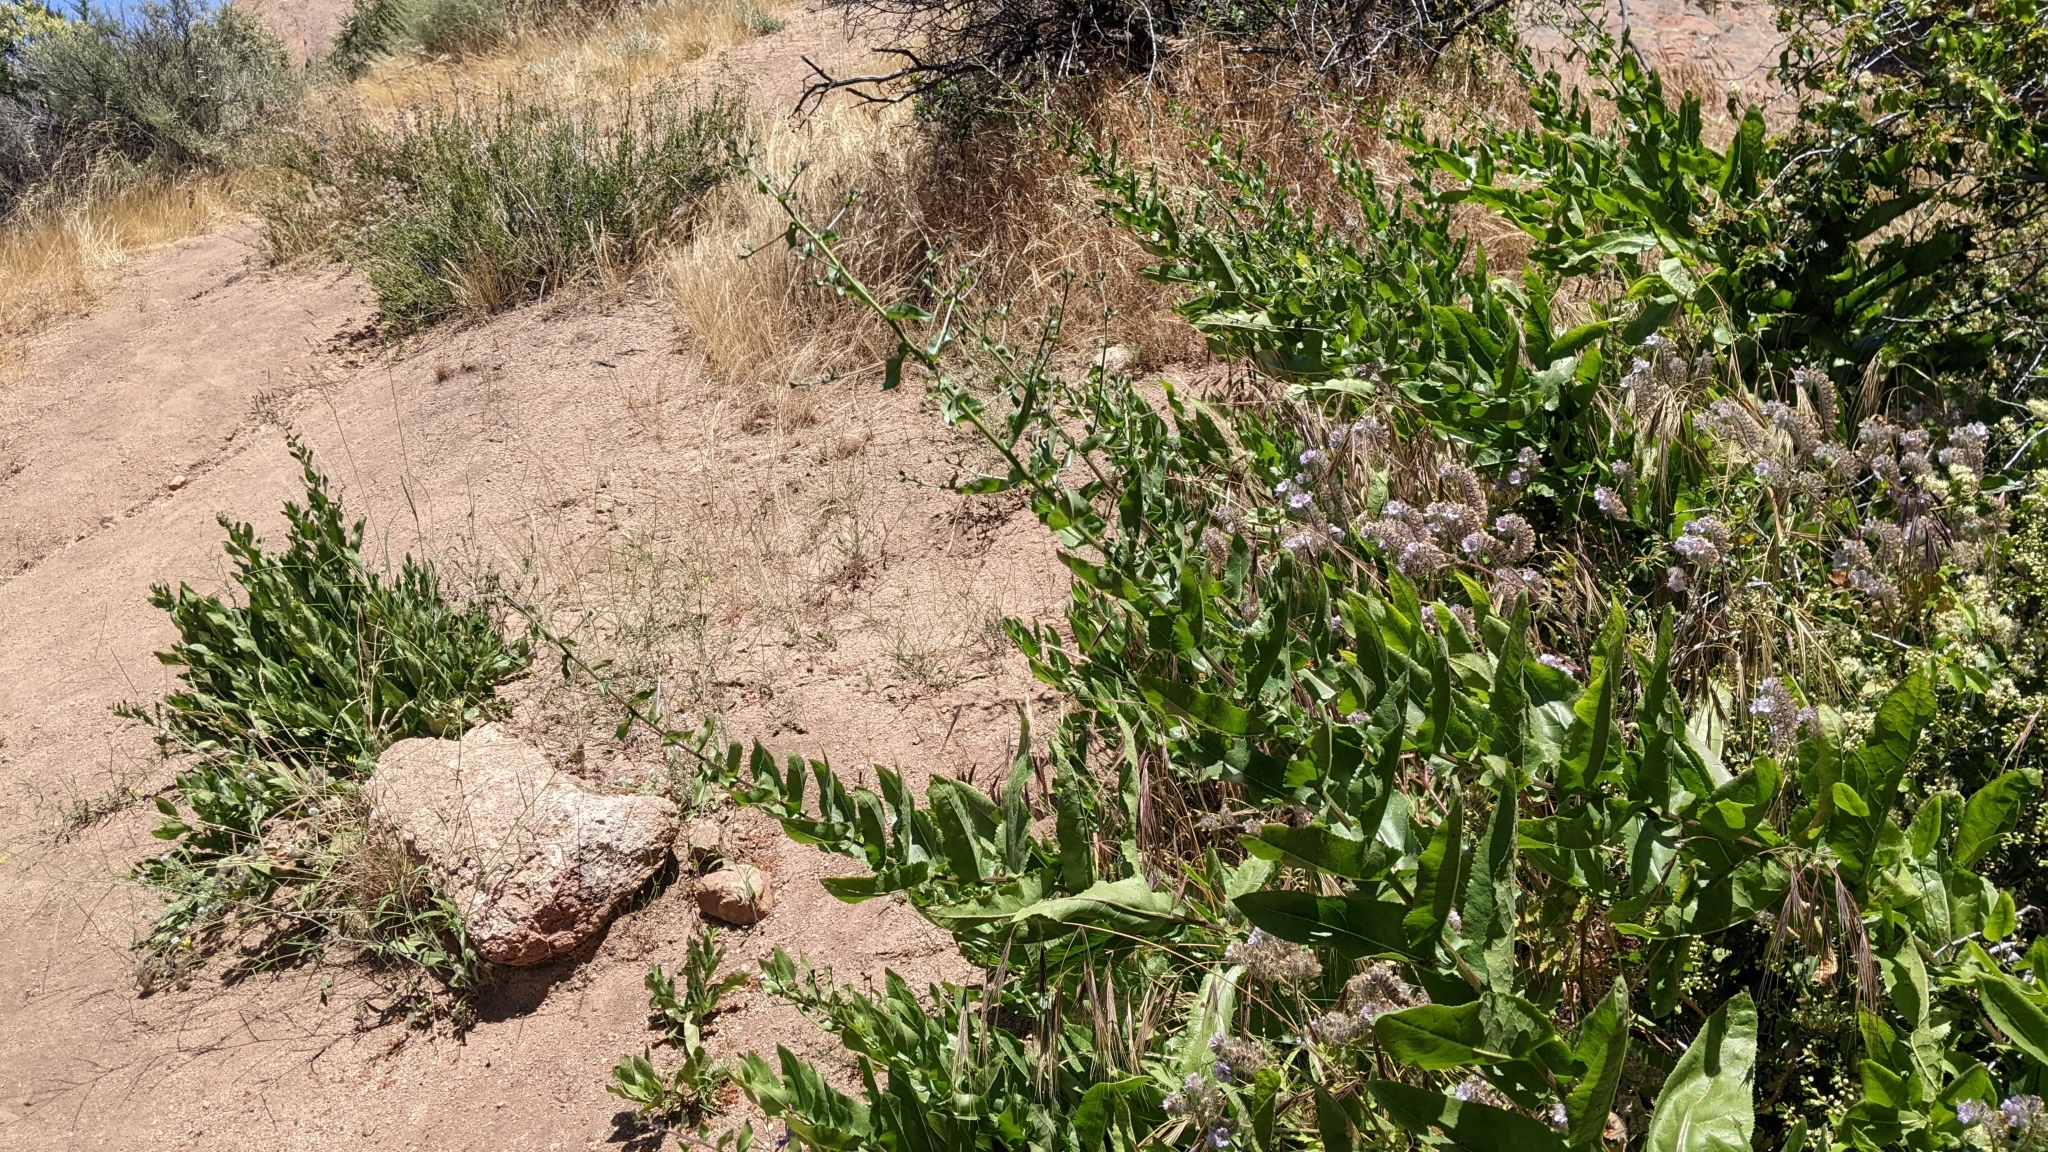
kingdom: Plantae
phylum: Tracheophyta
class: Magnoliopsida
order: Asterales
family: Asteraceae
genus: Acourtia
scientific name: Acourtia microcephala
